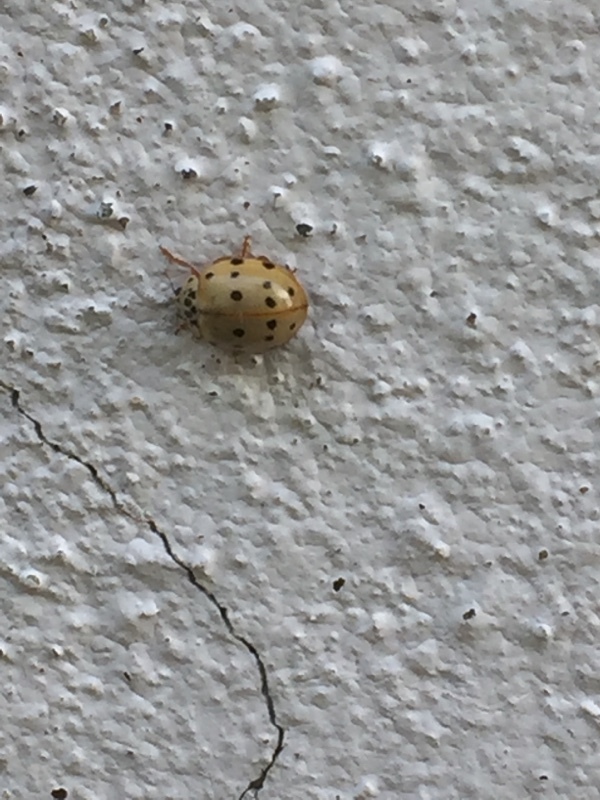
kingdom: Animalia
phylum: Arthropoda
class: Insecta
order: Coleoptera
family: Coccinellidae
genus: Harmonia
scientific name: Harmonia quadripunctata
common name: Cream-streaked ladybird
